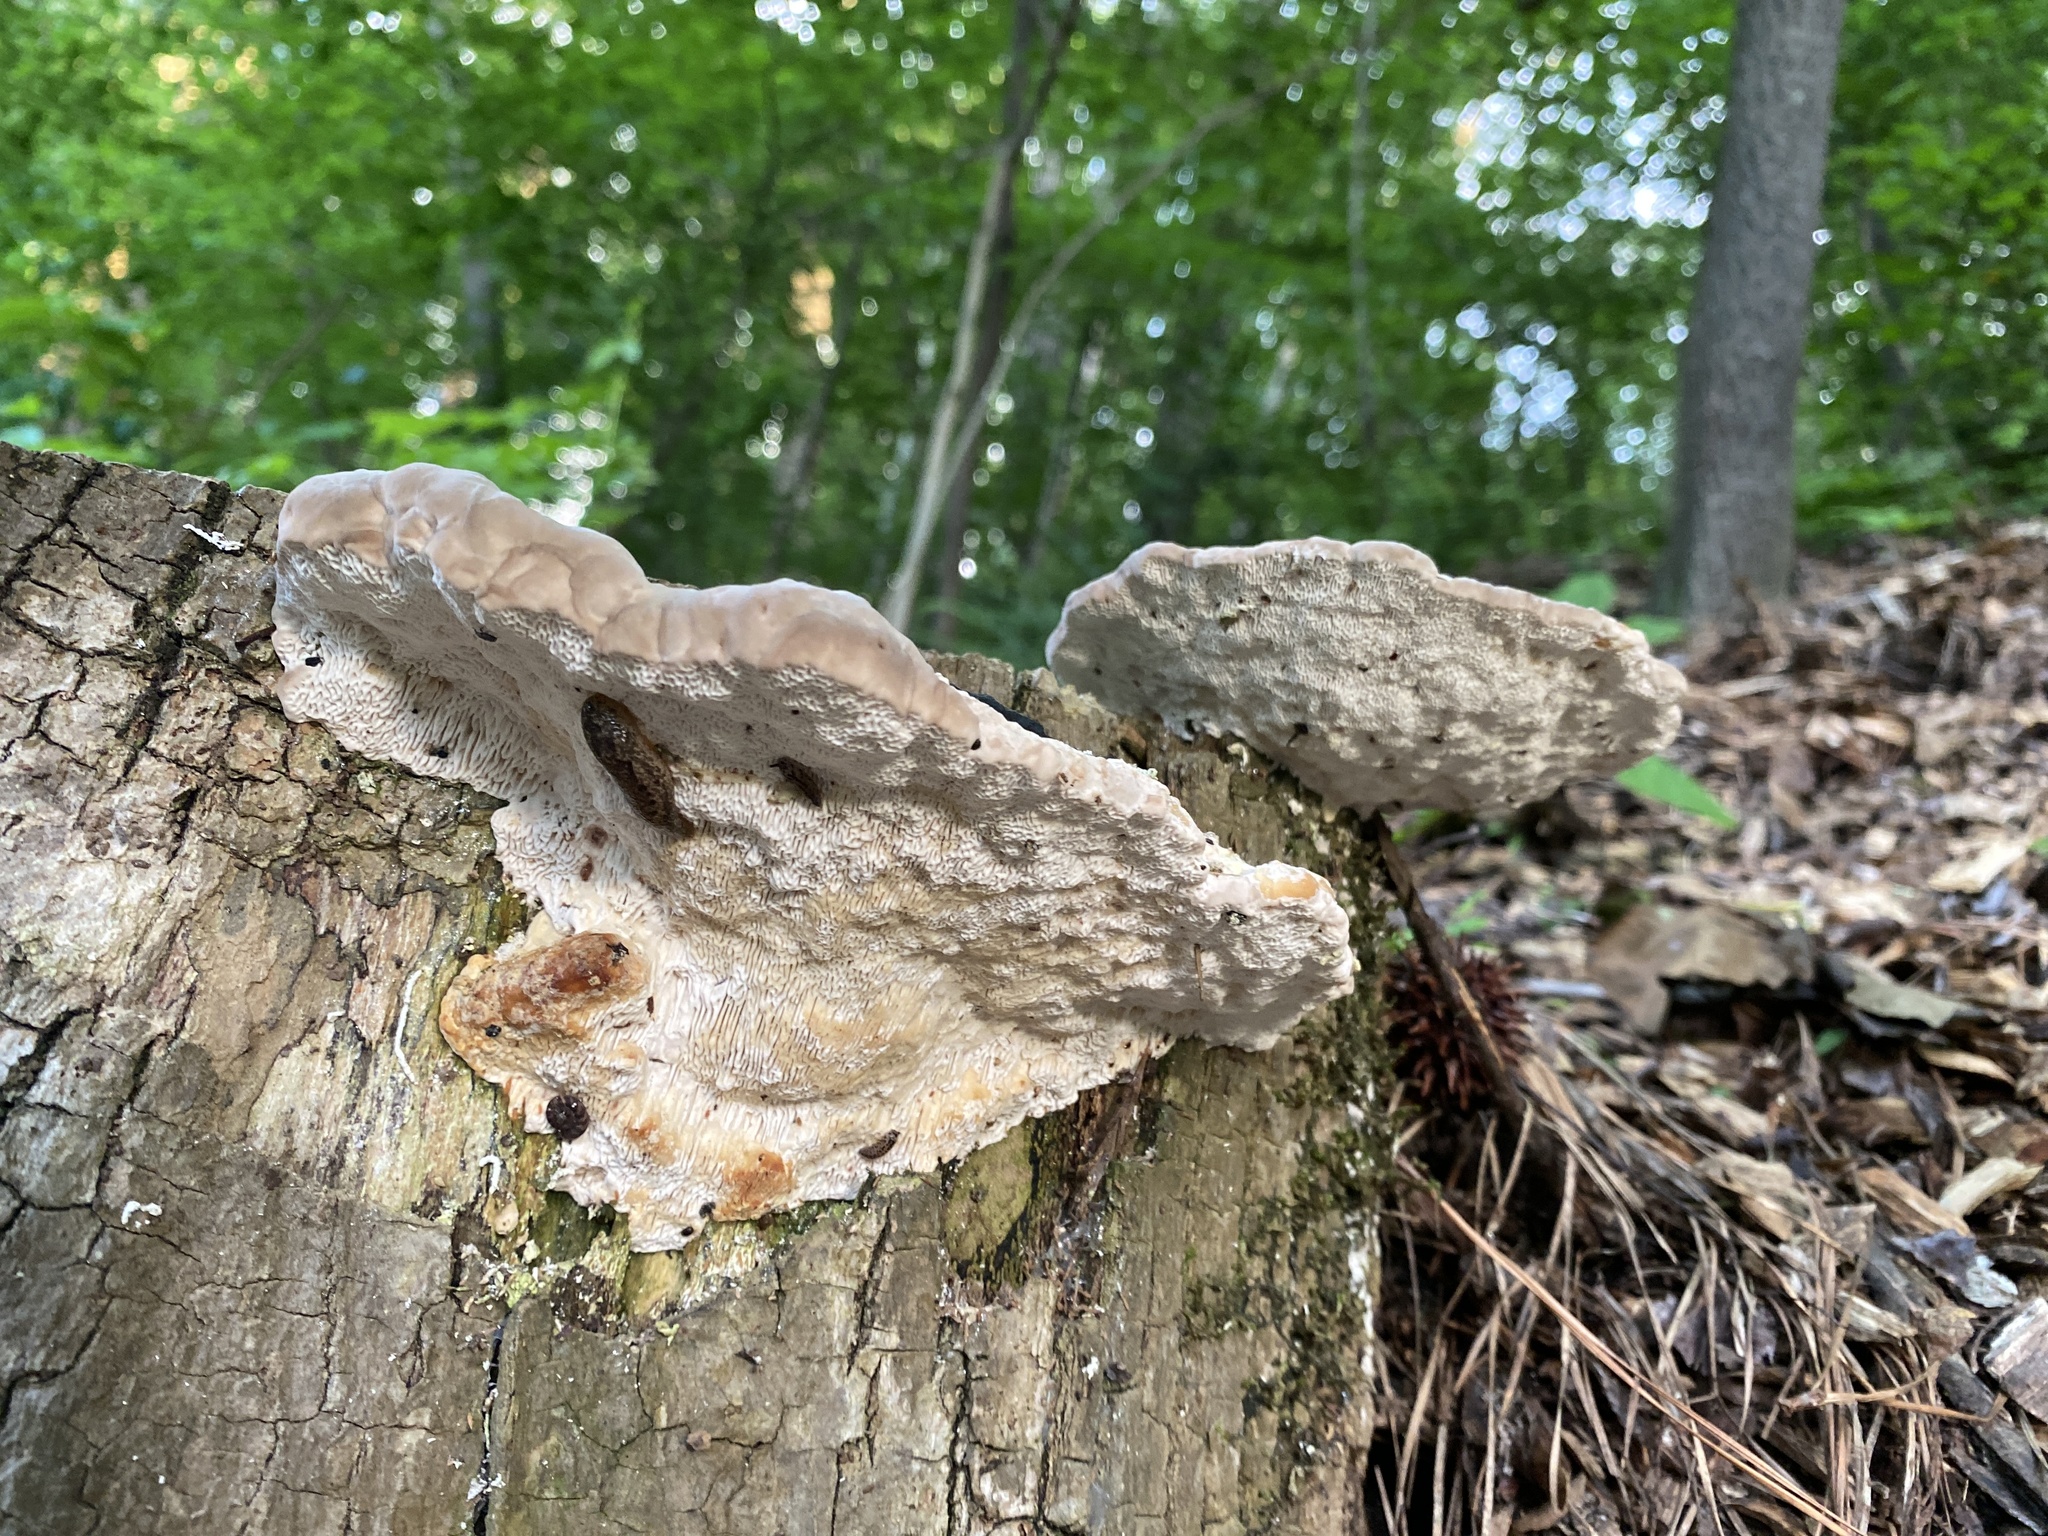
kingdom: Fungi
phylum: Basidiomycota
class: Agaricomycetes
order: Polyporales
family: Polyporaceae
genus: Trametes
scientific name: Trametes gibbosa
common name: Lumpy bracket
